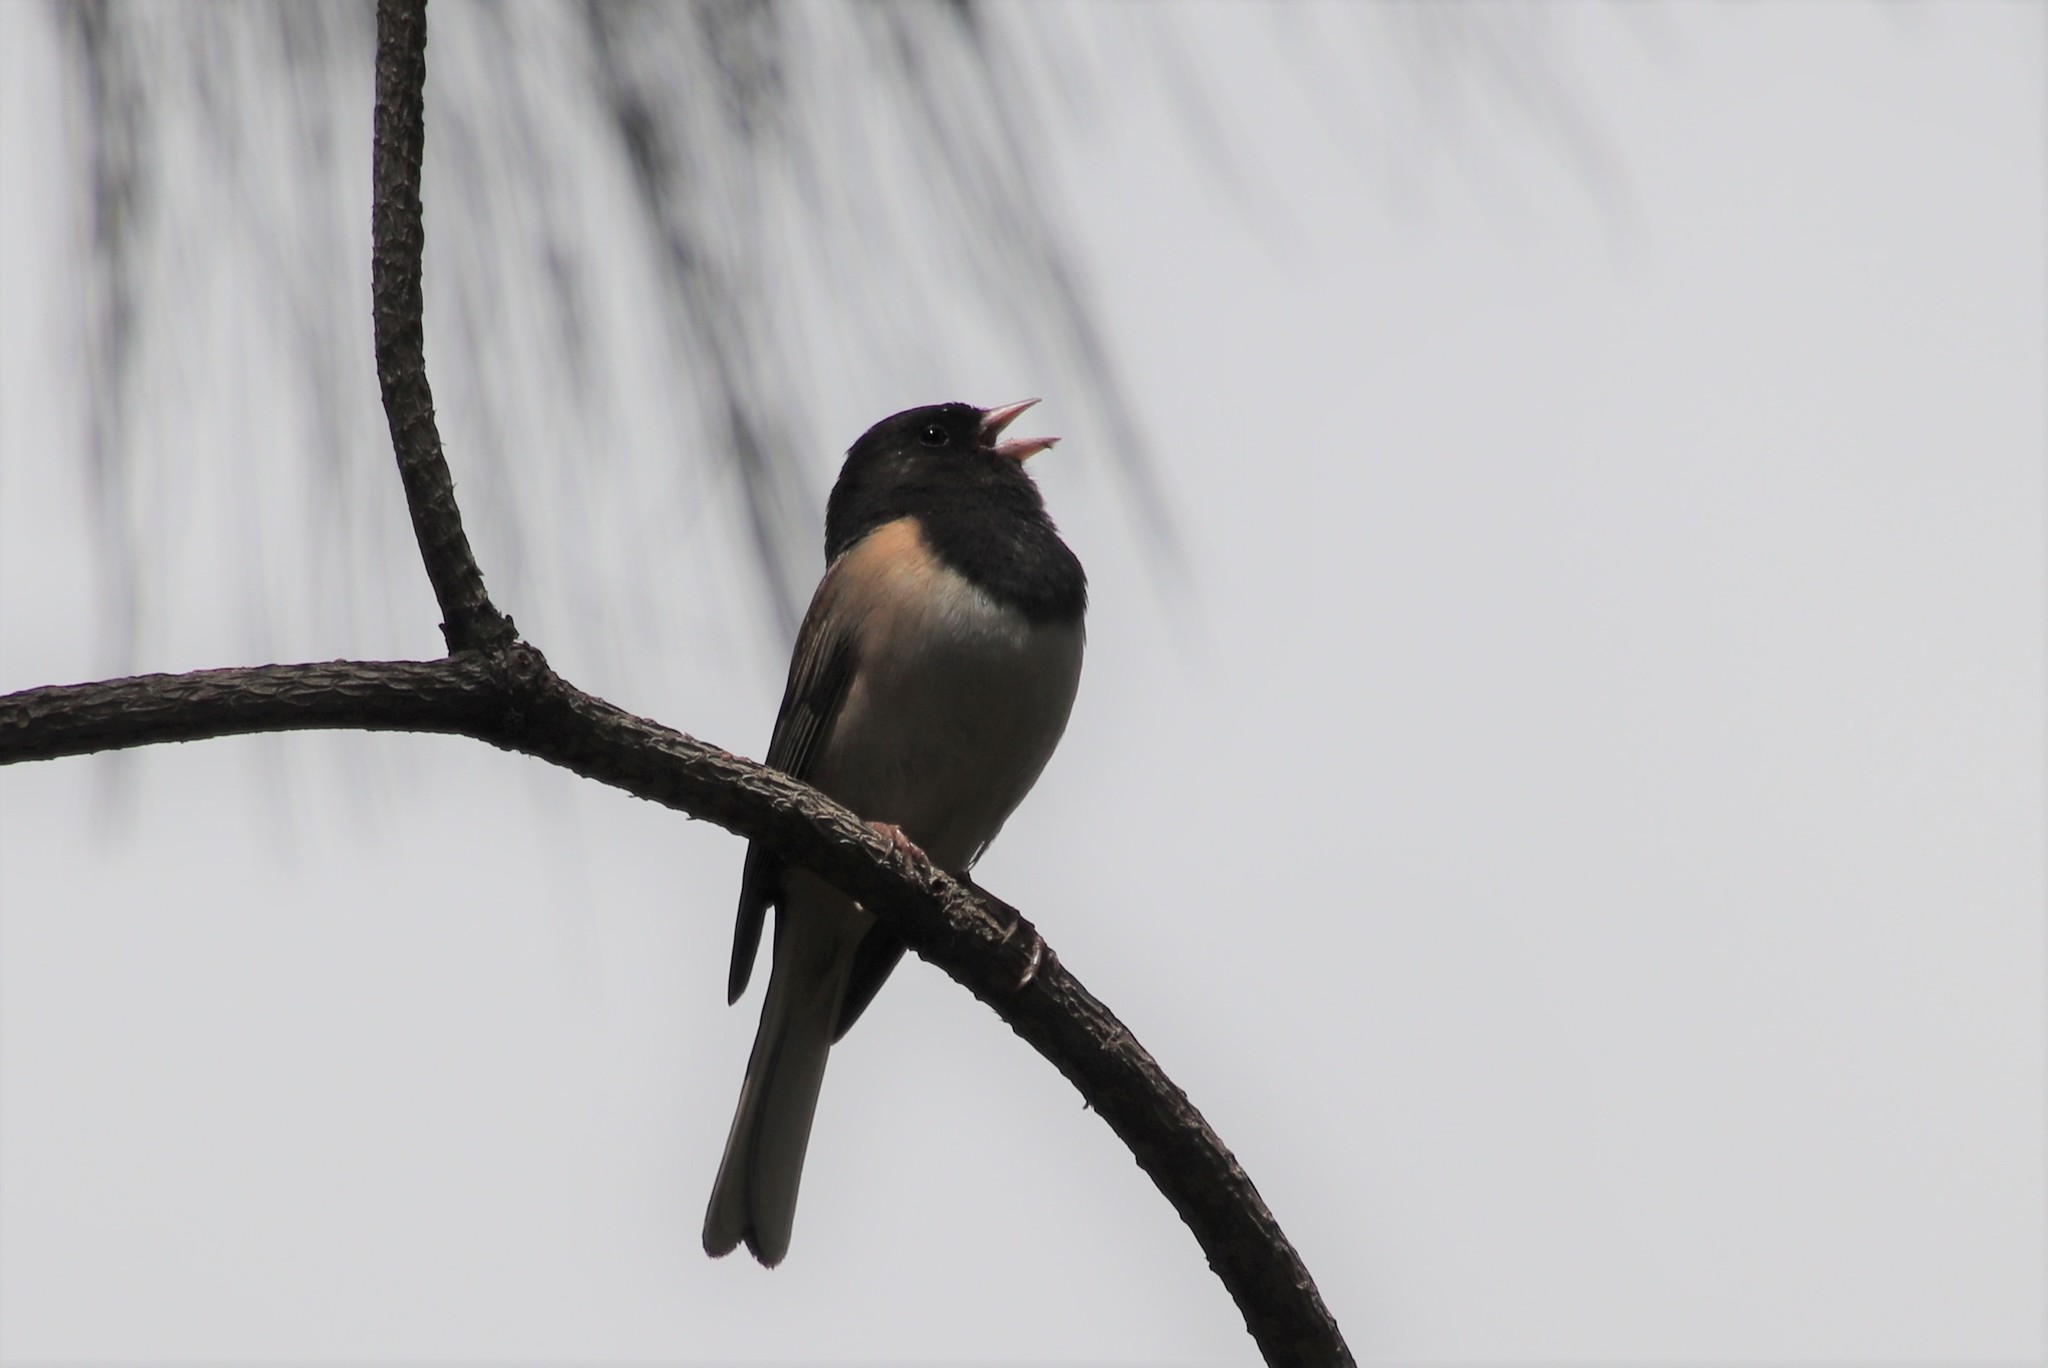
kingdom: Animalia
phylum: Chordata
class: Aves
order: Passeriformes
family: Passerellidae
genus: Junco
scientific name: Junco hyemalis
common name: Dark-eyed junco
